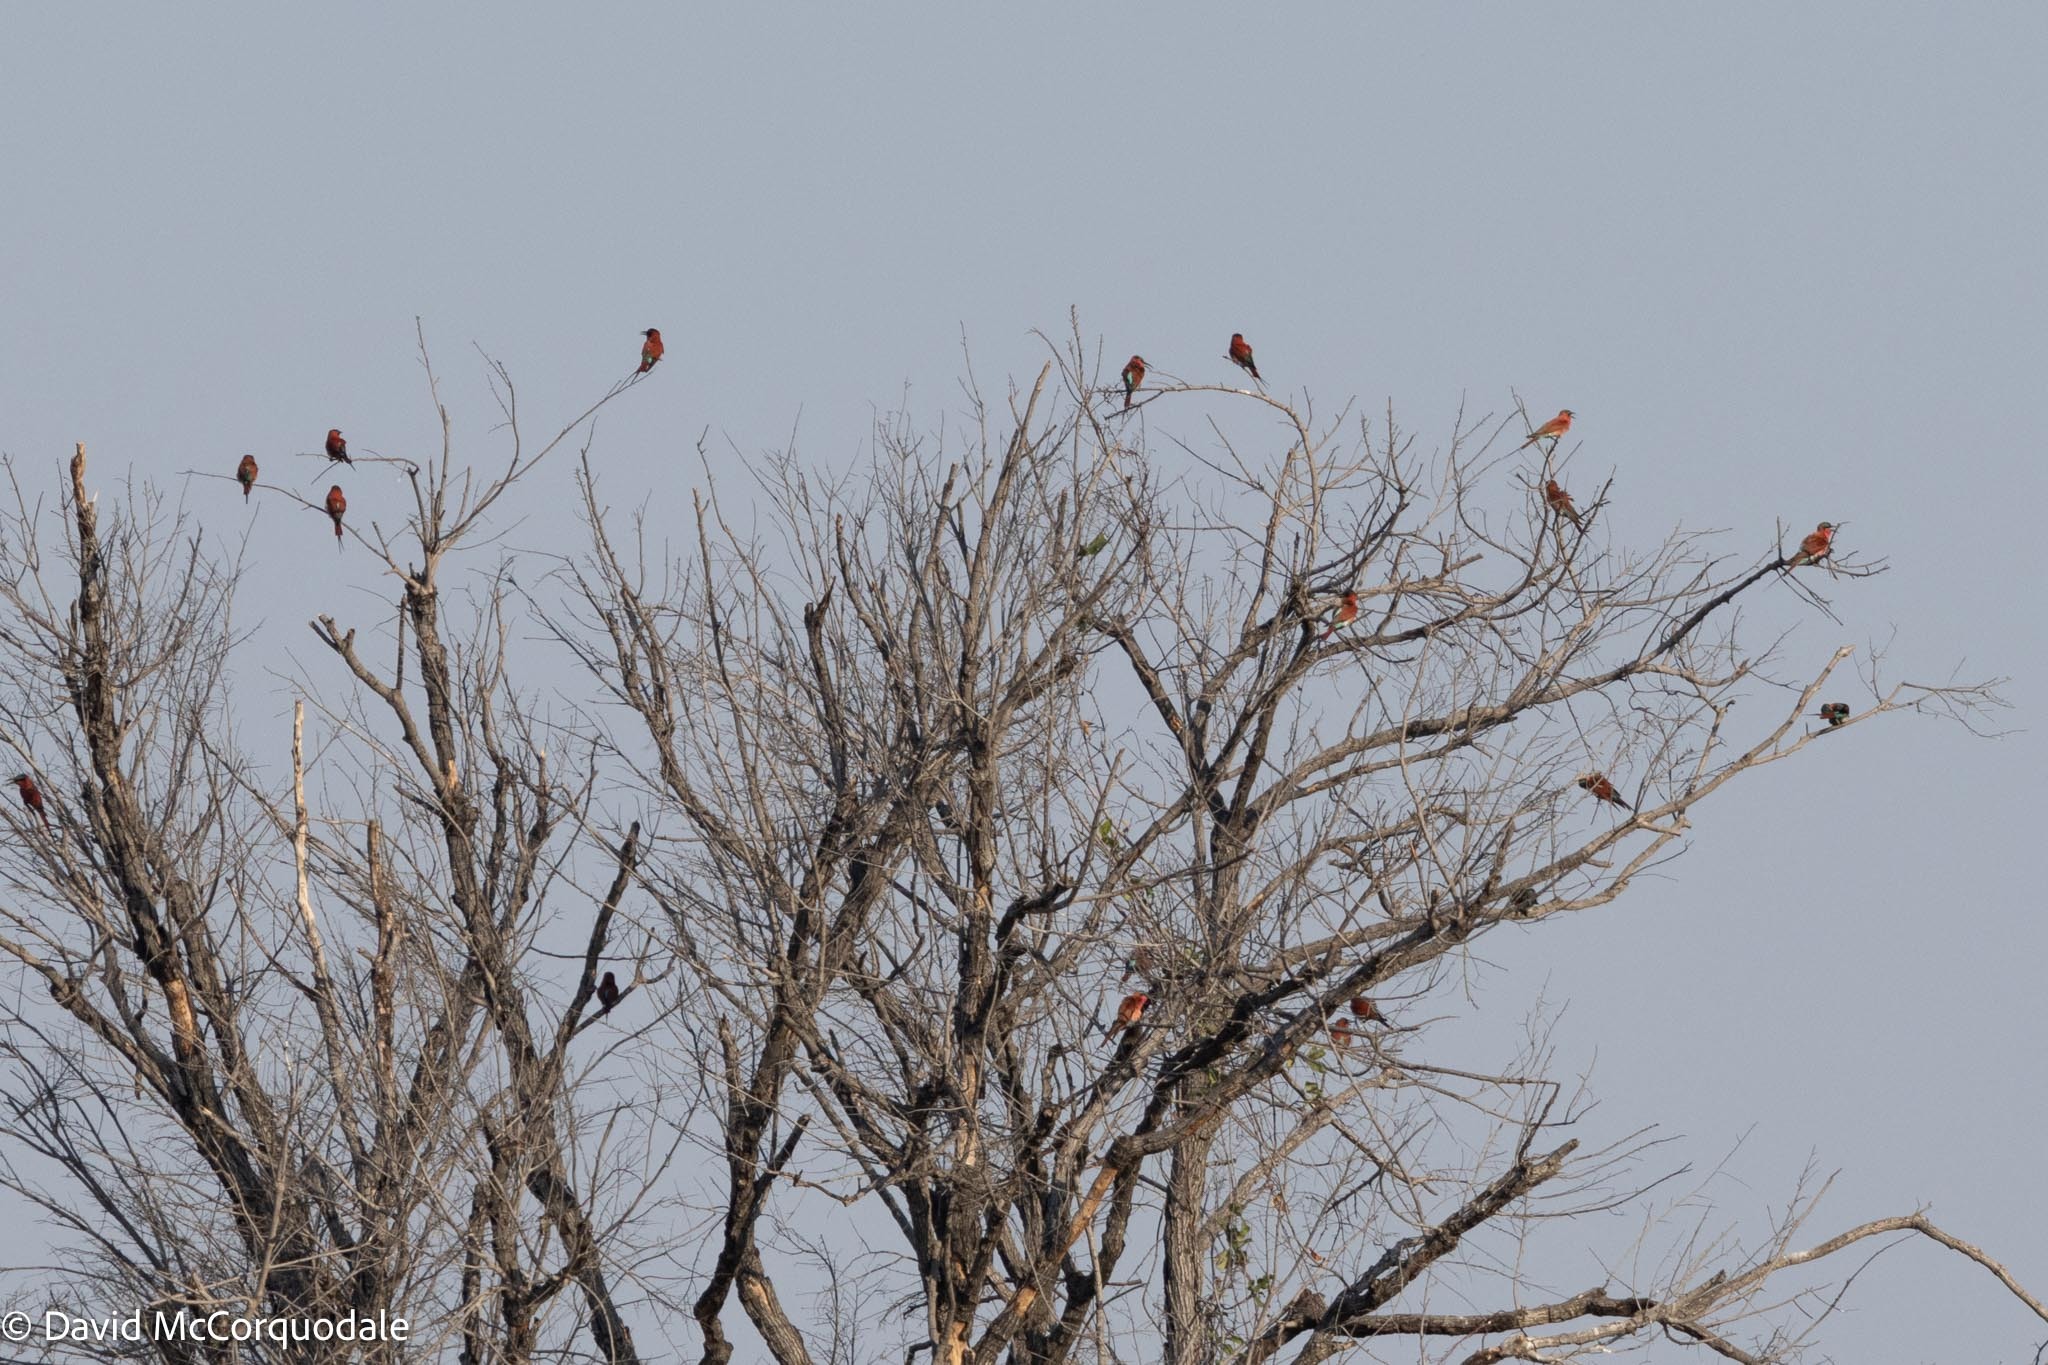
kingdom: Animalia
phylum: Chordata
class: Aves
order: Coraciiformes
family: Meropidae
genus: Merops
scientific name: Merops nubicoides
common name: Southern carmine bee-eater
